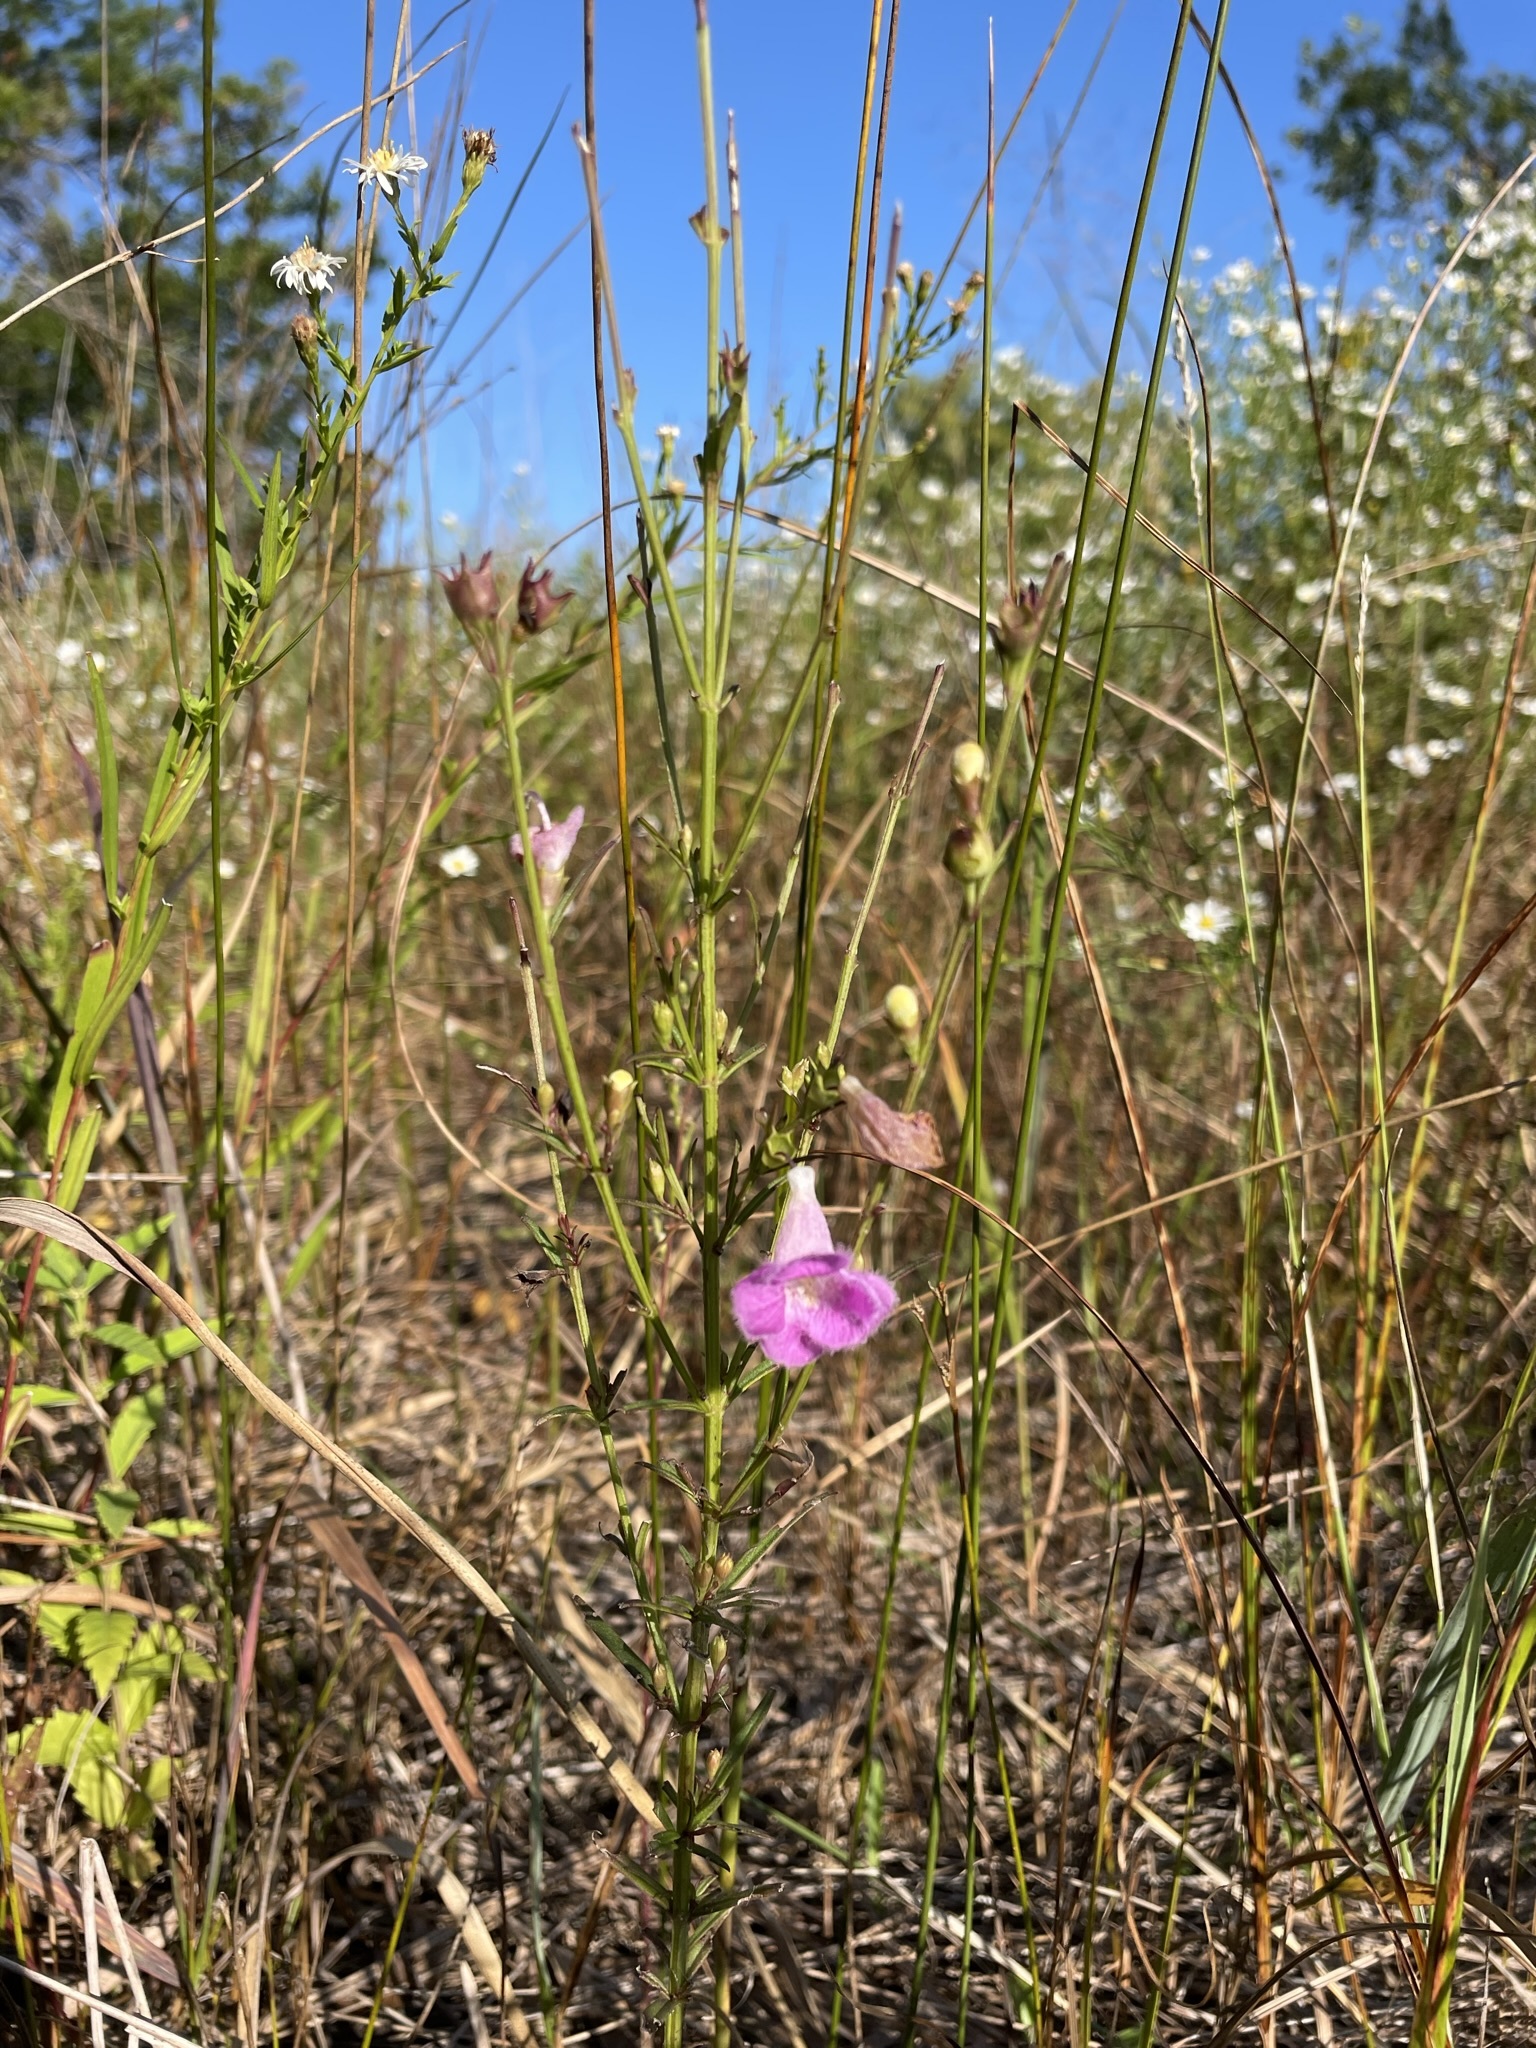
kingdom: Plantae
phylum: Tracheophyta
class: Magnoliopsida
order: Lamiales
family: Orobanchaceae
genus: Agalinis
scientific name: Agalinis purpurea
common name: Purple false foxglove
